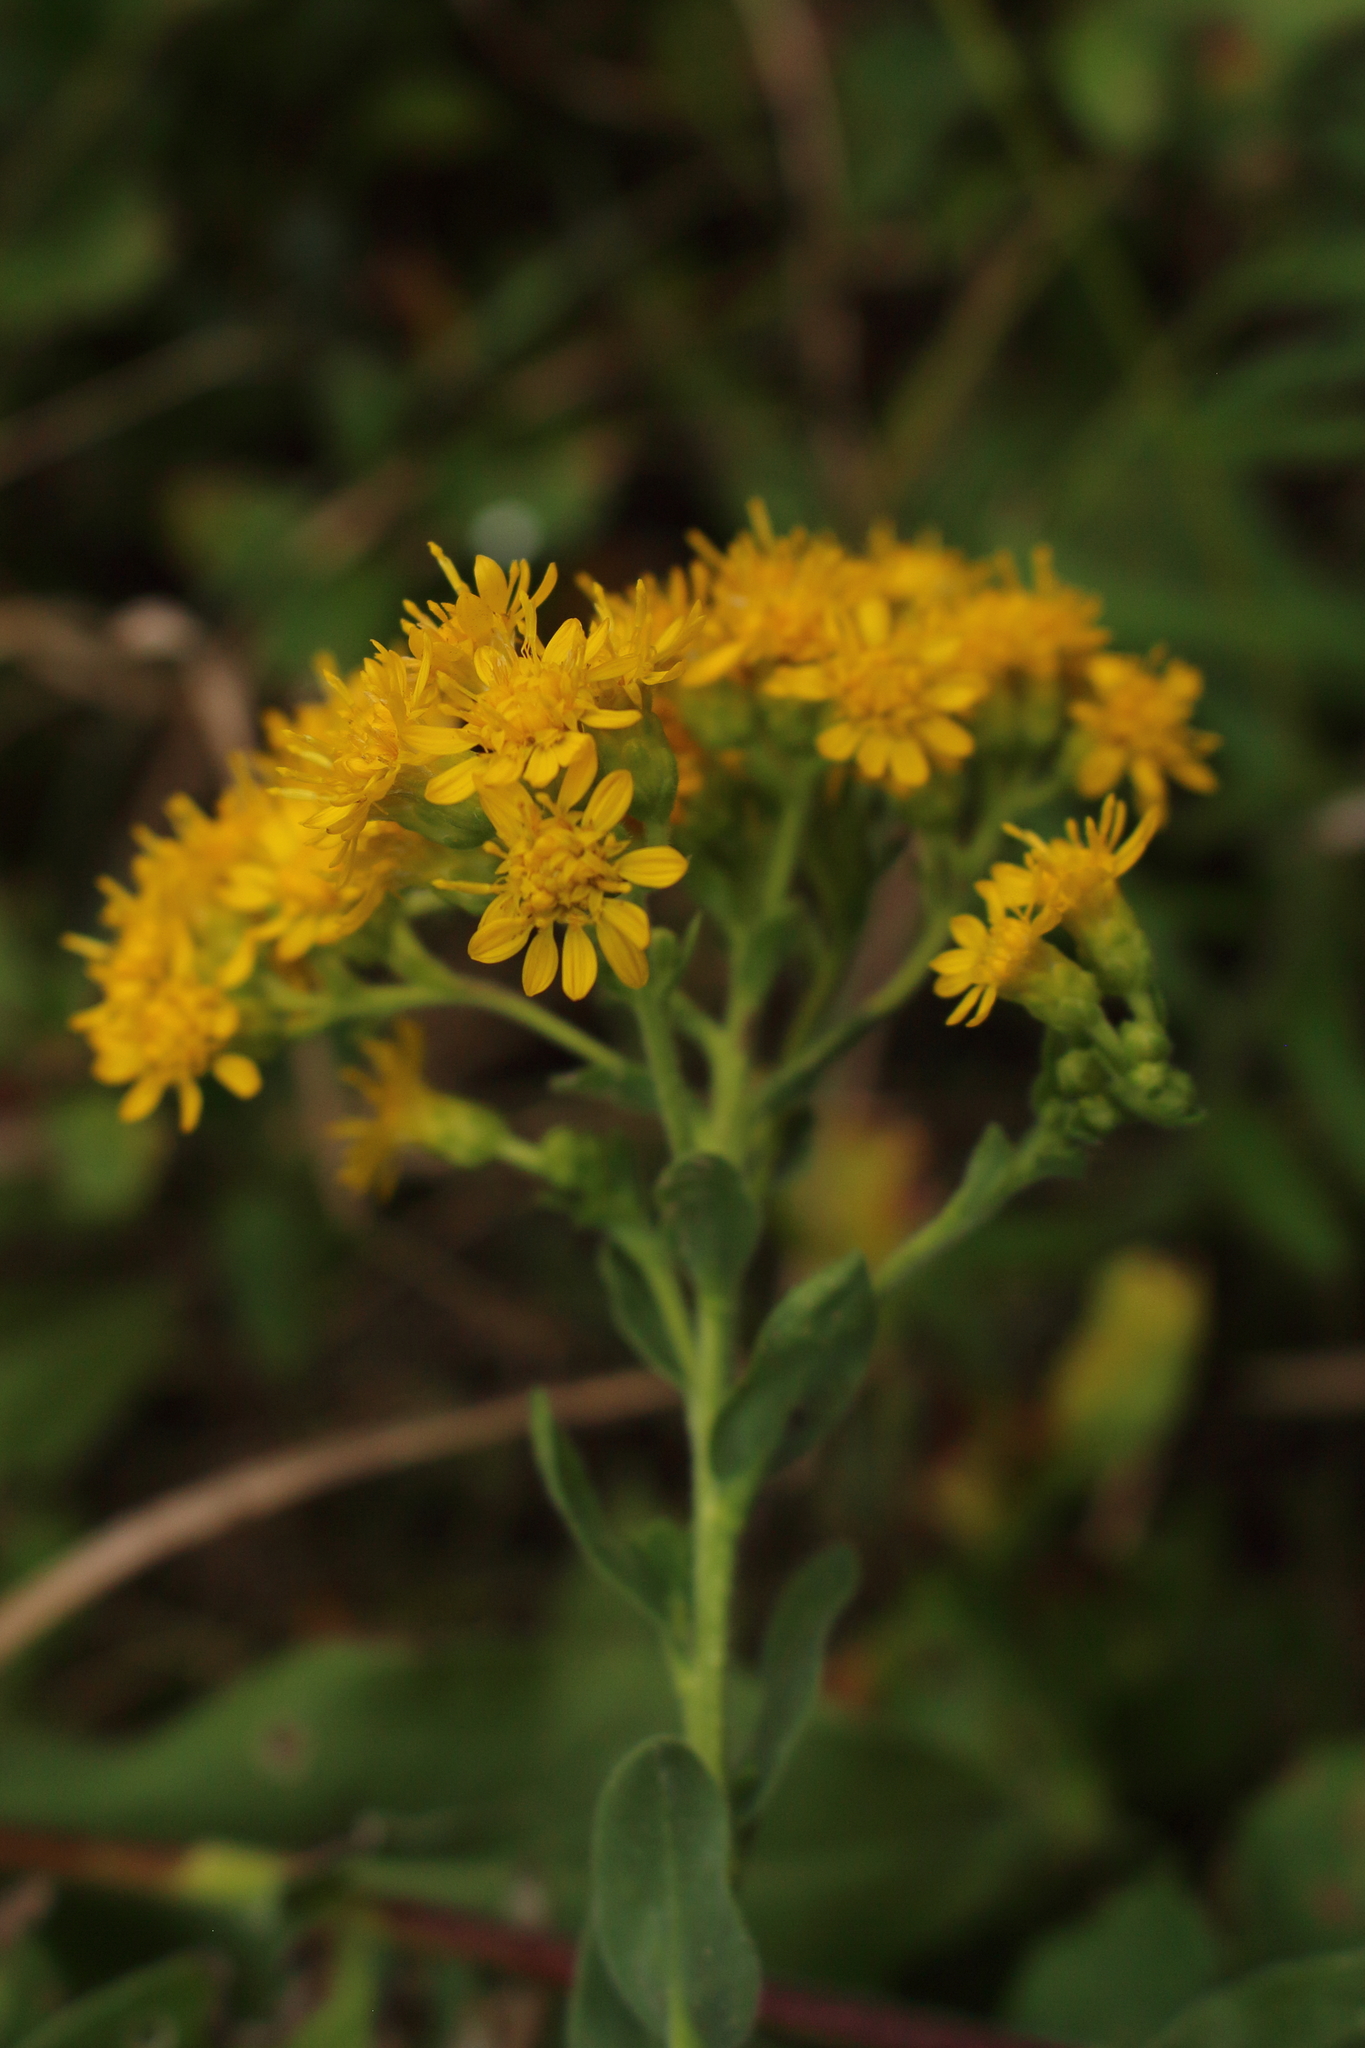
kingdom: Plantae
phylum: Tracheophyta
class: Magnoliopsida
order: Asterales
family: Asteraceae
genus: Solidago
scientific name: Solidago rigida
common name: Rigid goldenrod
